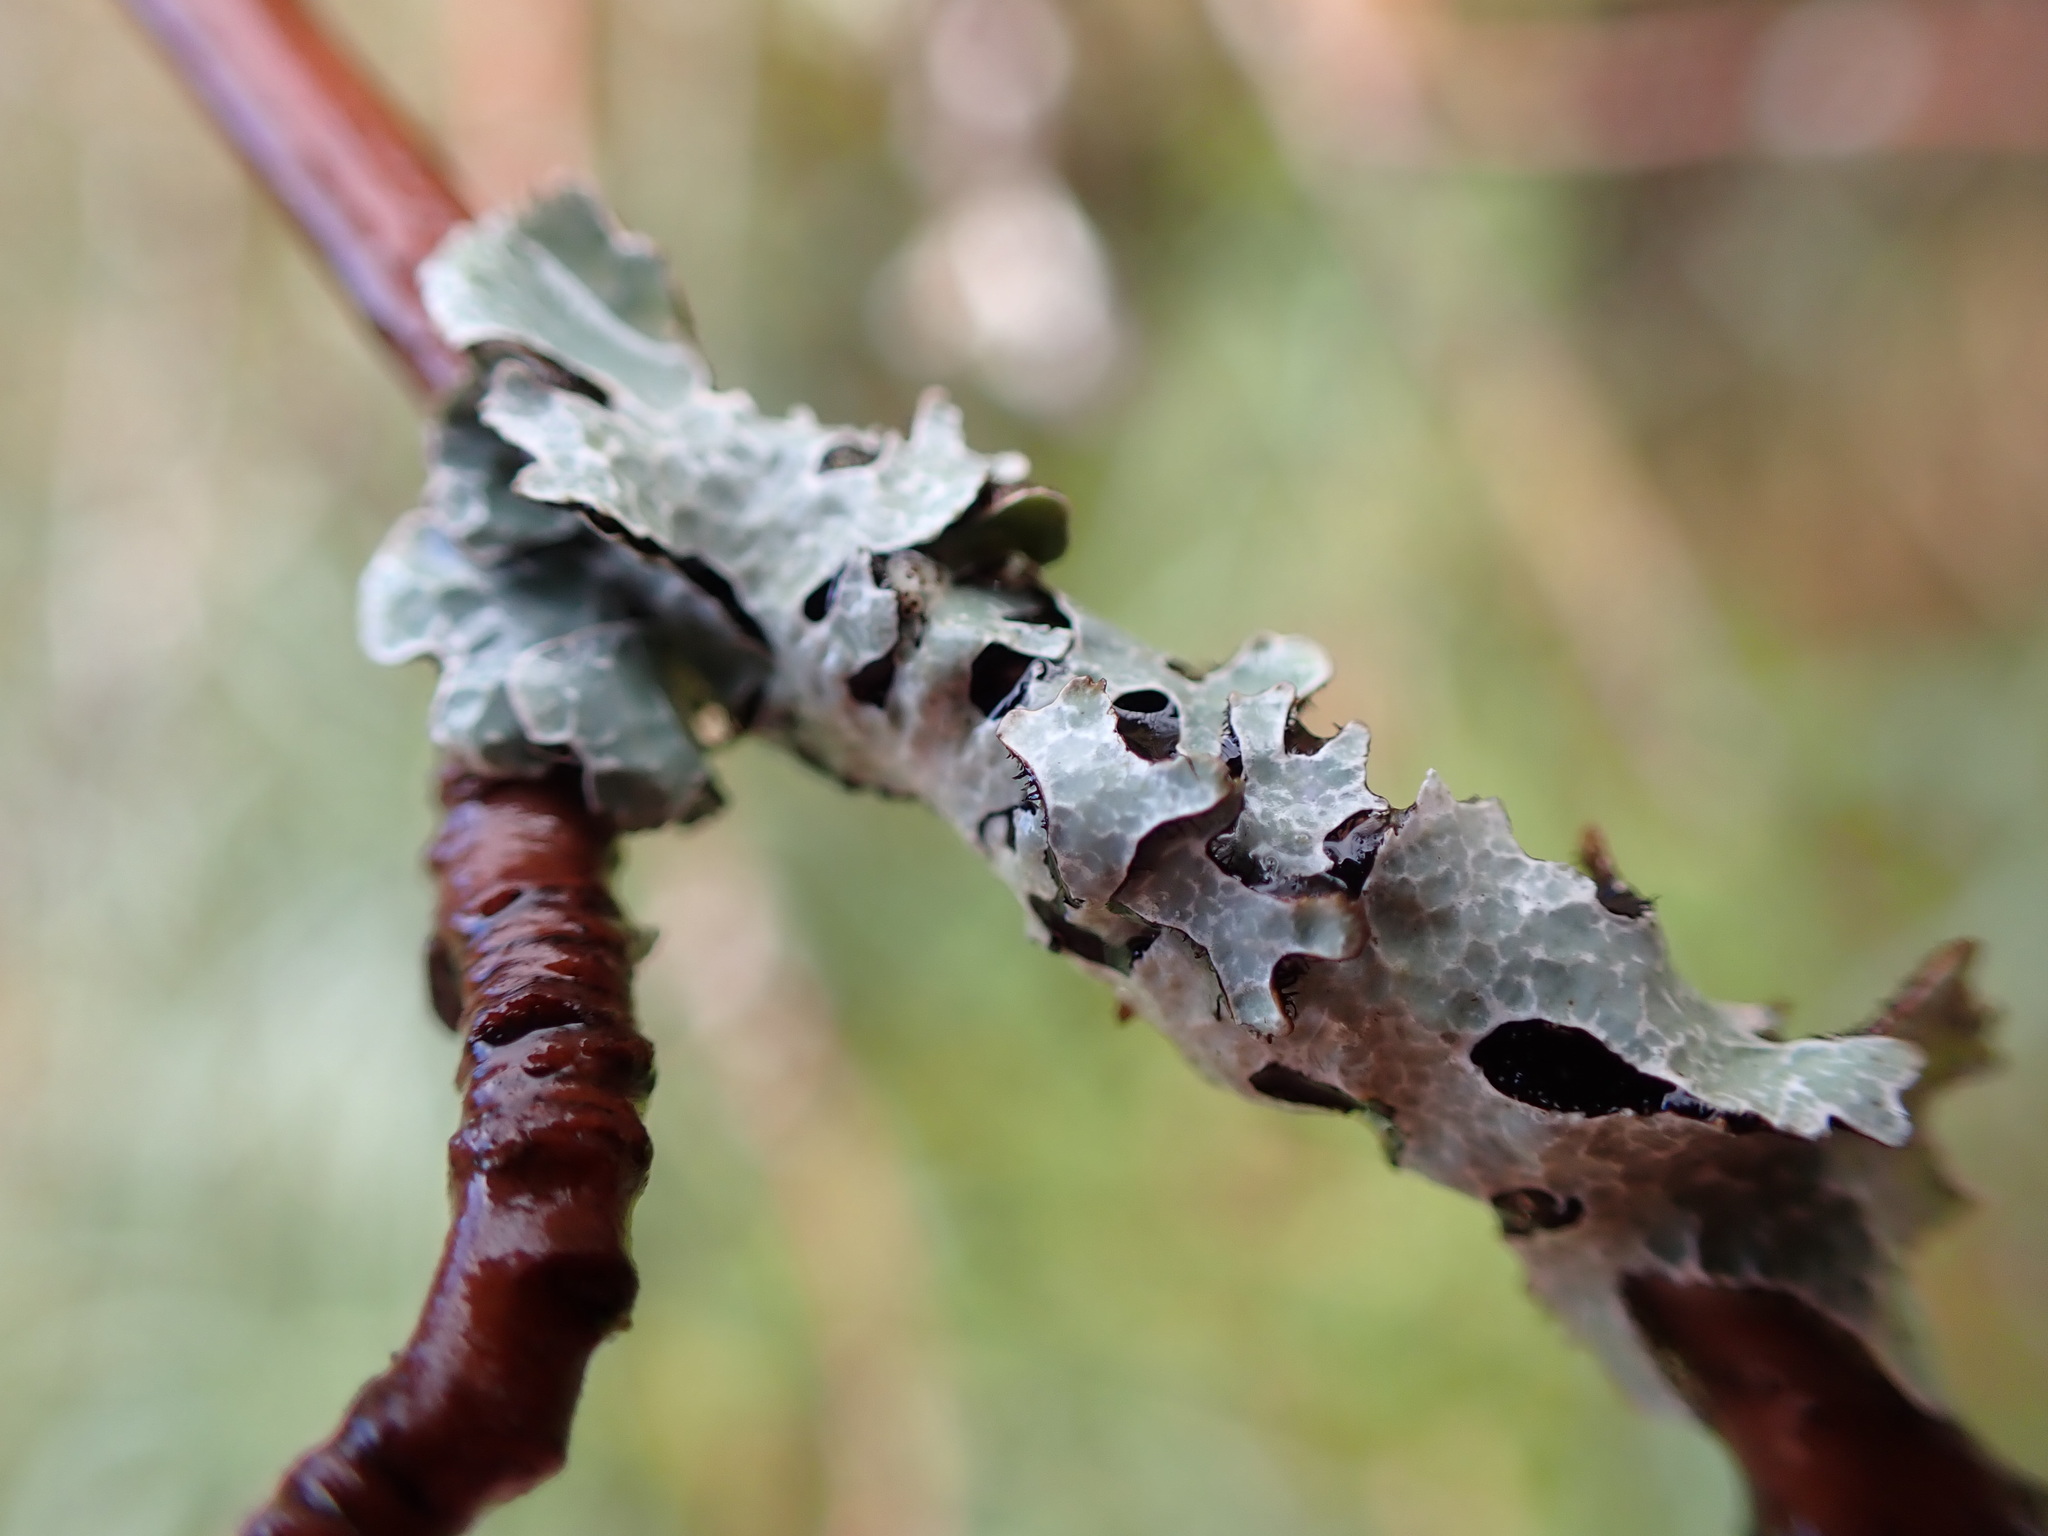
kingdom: Fungi
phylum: Ascomycota
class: Lecanoromycetes
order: Lecanorales
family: Parmeliaceae
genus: Parmelia
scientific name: Parmelia sulcata
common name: Netted shield lichen
